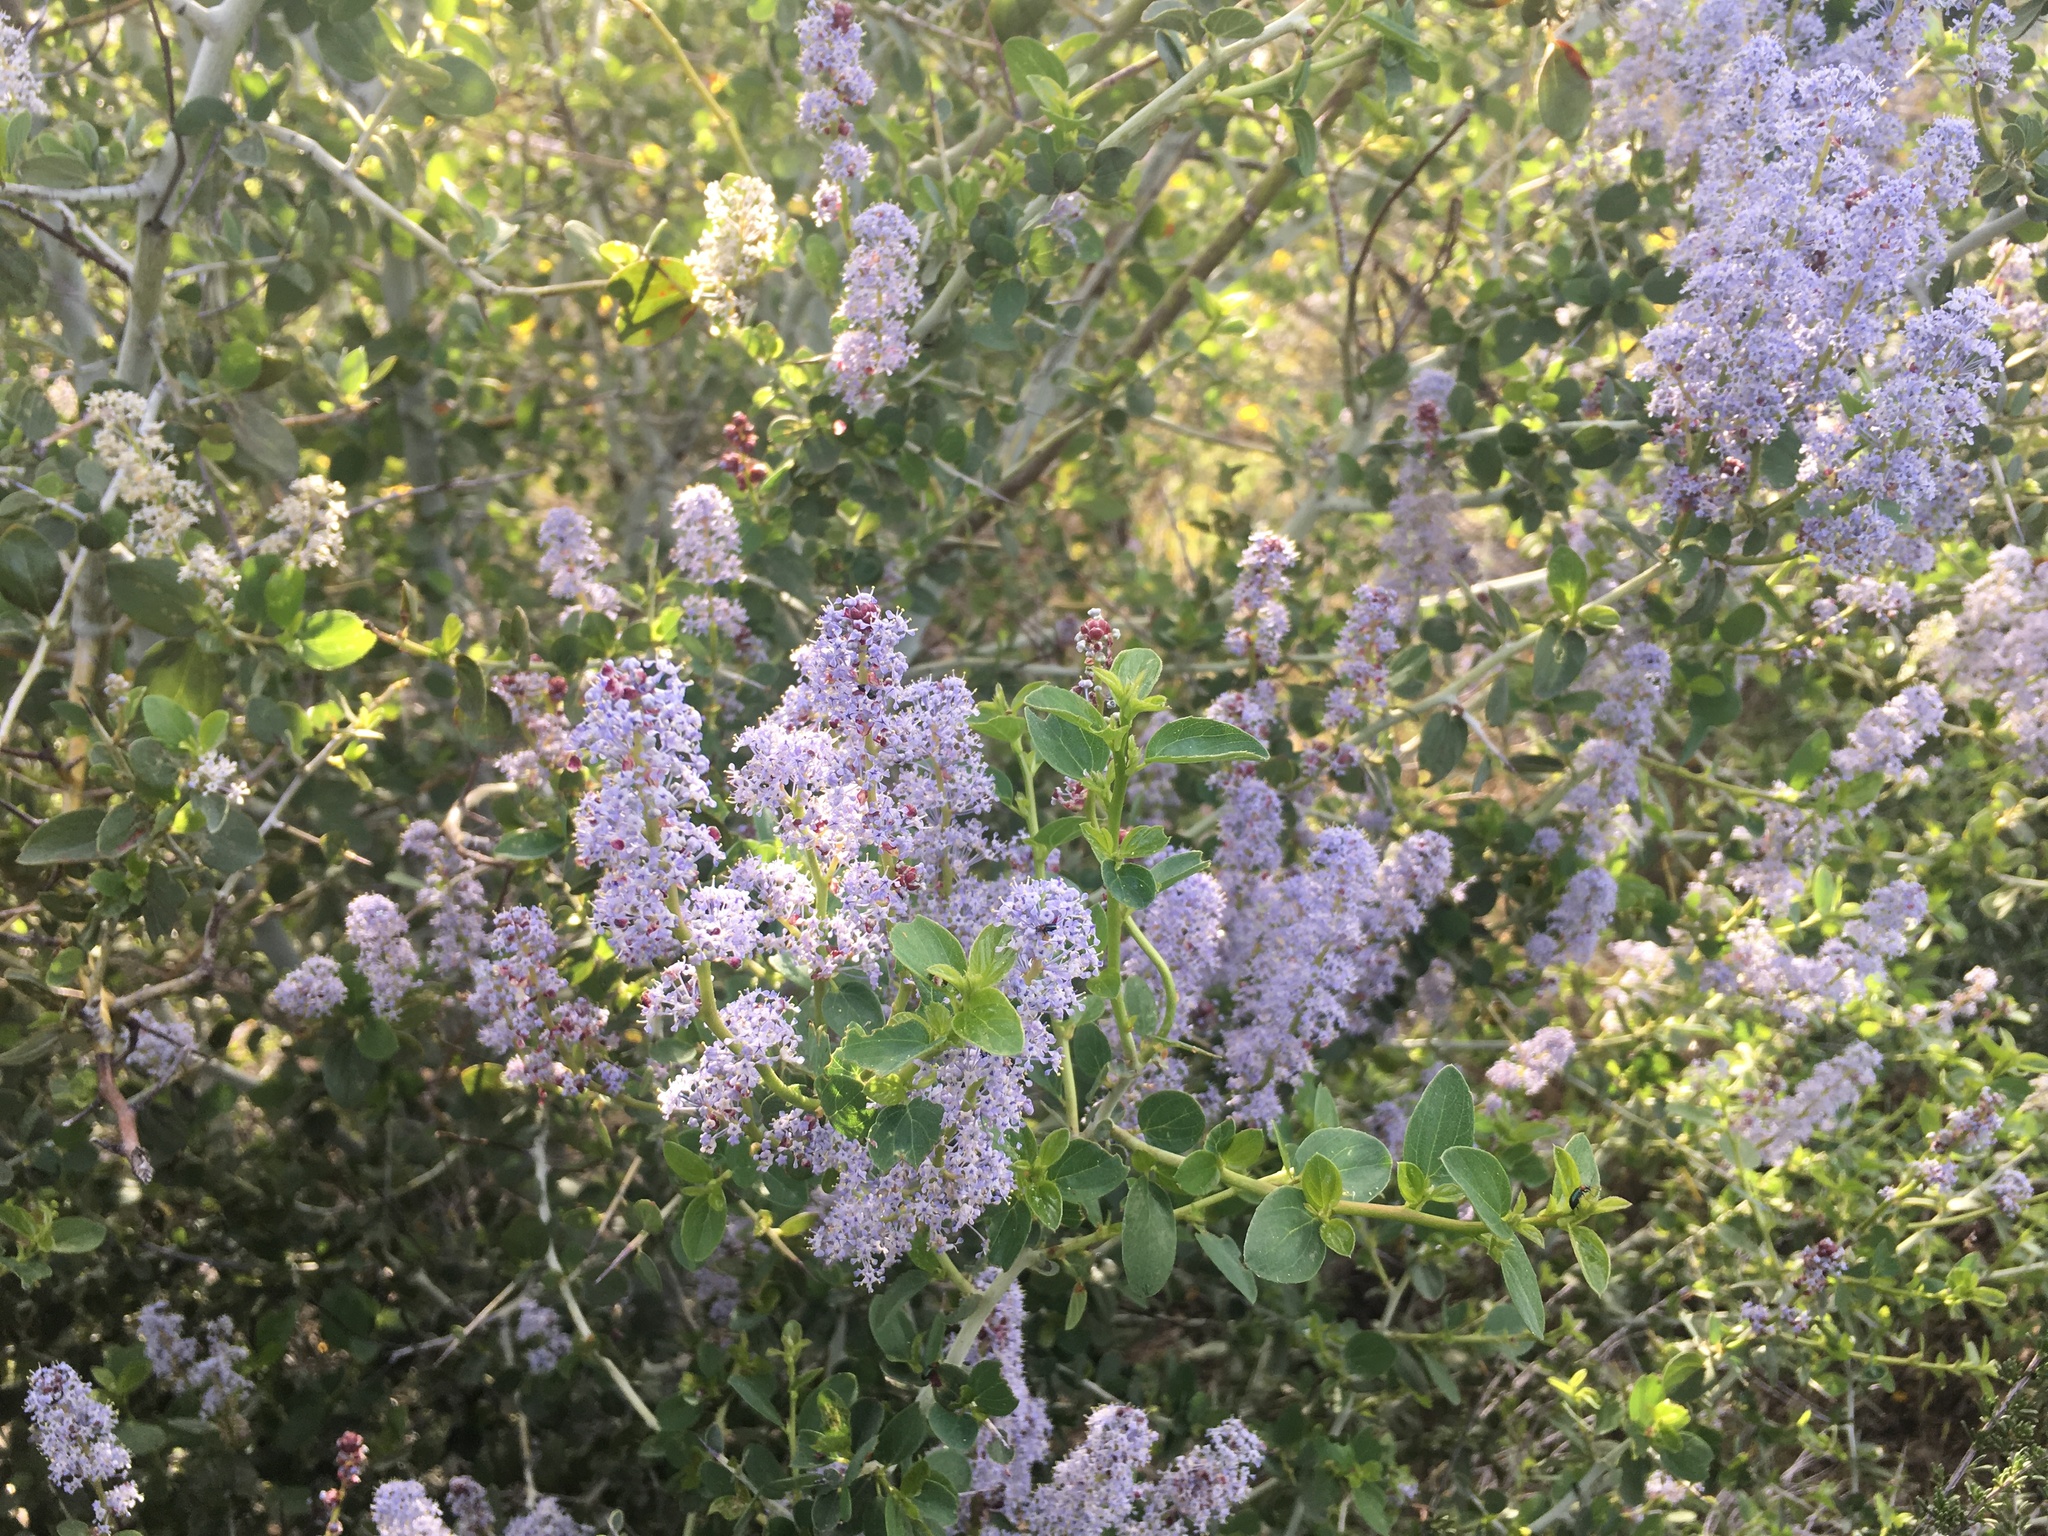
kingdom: Plantae
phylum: Tracheophyta
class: Magnoliopsida
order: Rosales
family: Rhamnaceae
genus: Ceanothus
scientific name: Ceanothus leucodermis
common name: Chaparral whitethorn
